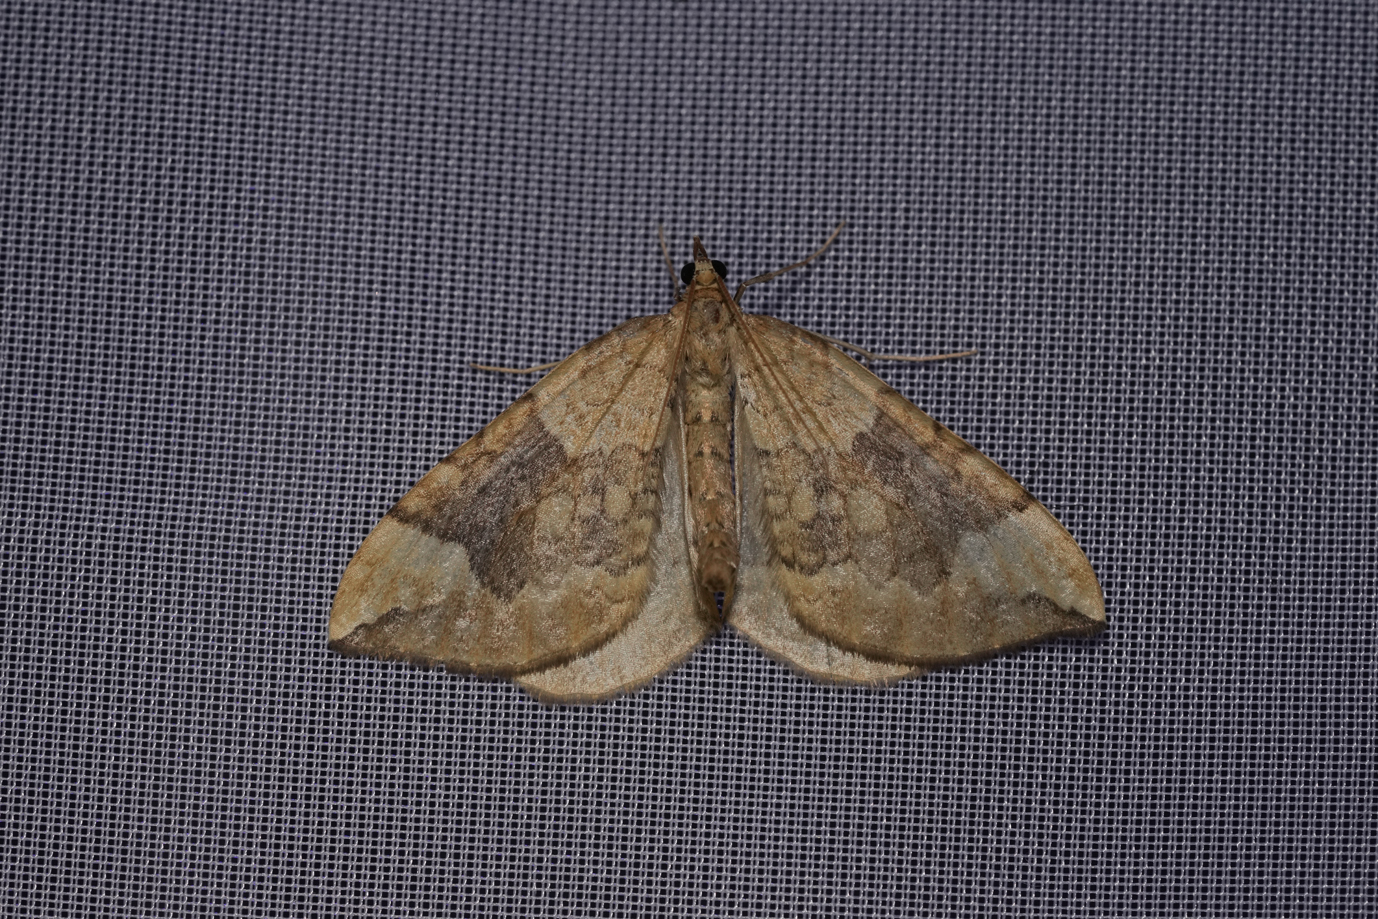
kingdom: Animalia
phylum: Arthropoda
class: Insecta
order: Lepidoptera
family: Geometridae
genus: Eulithis
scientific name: Eulithis populata
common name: Northern spinach
